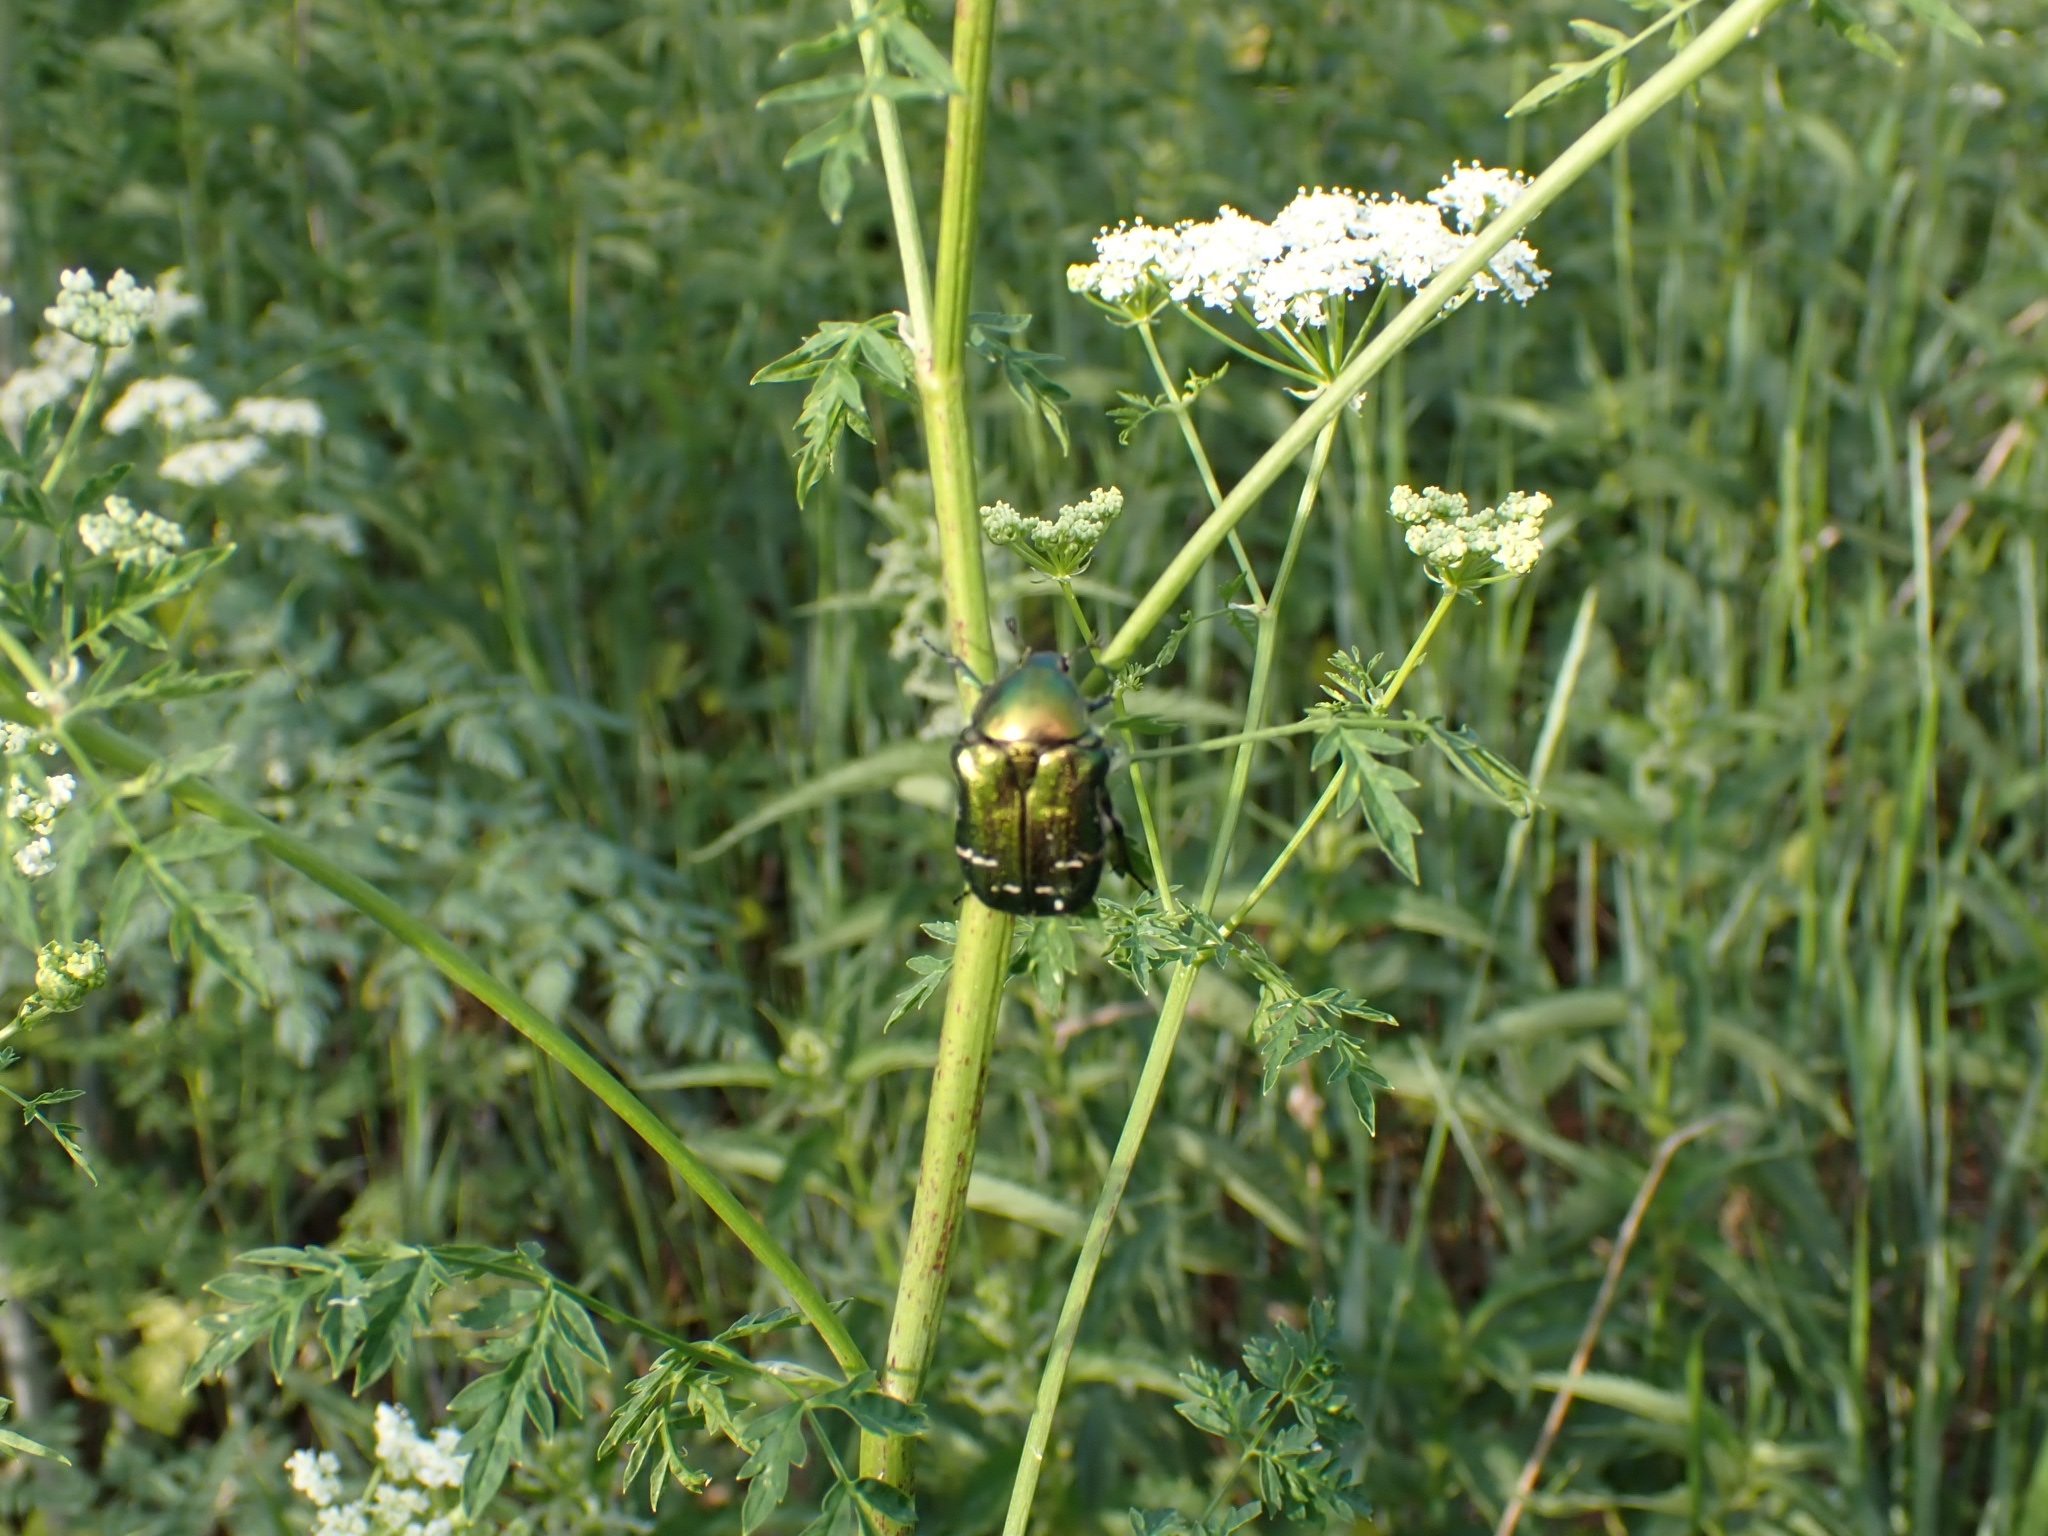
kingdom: Animalia
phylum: Arthropoda
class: Insecta
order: Coleoptera
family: Scarabaeidae
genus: Cetonia
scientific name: Cetonia aurata
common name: Rose chafer
